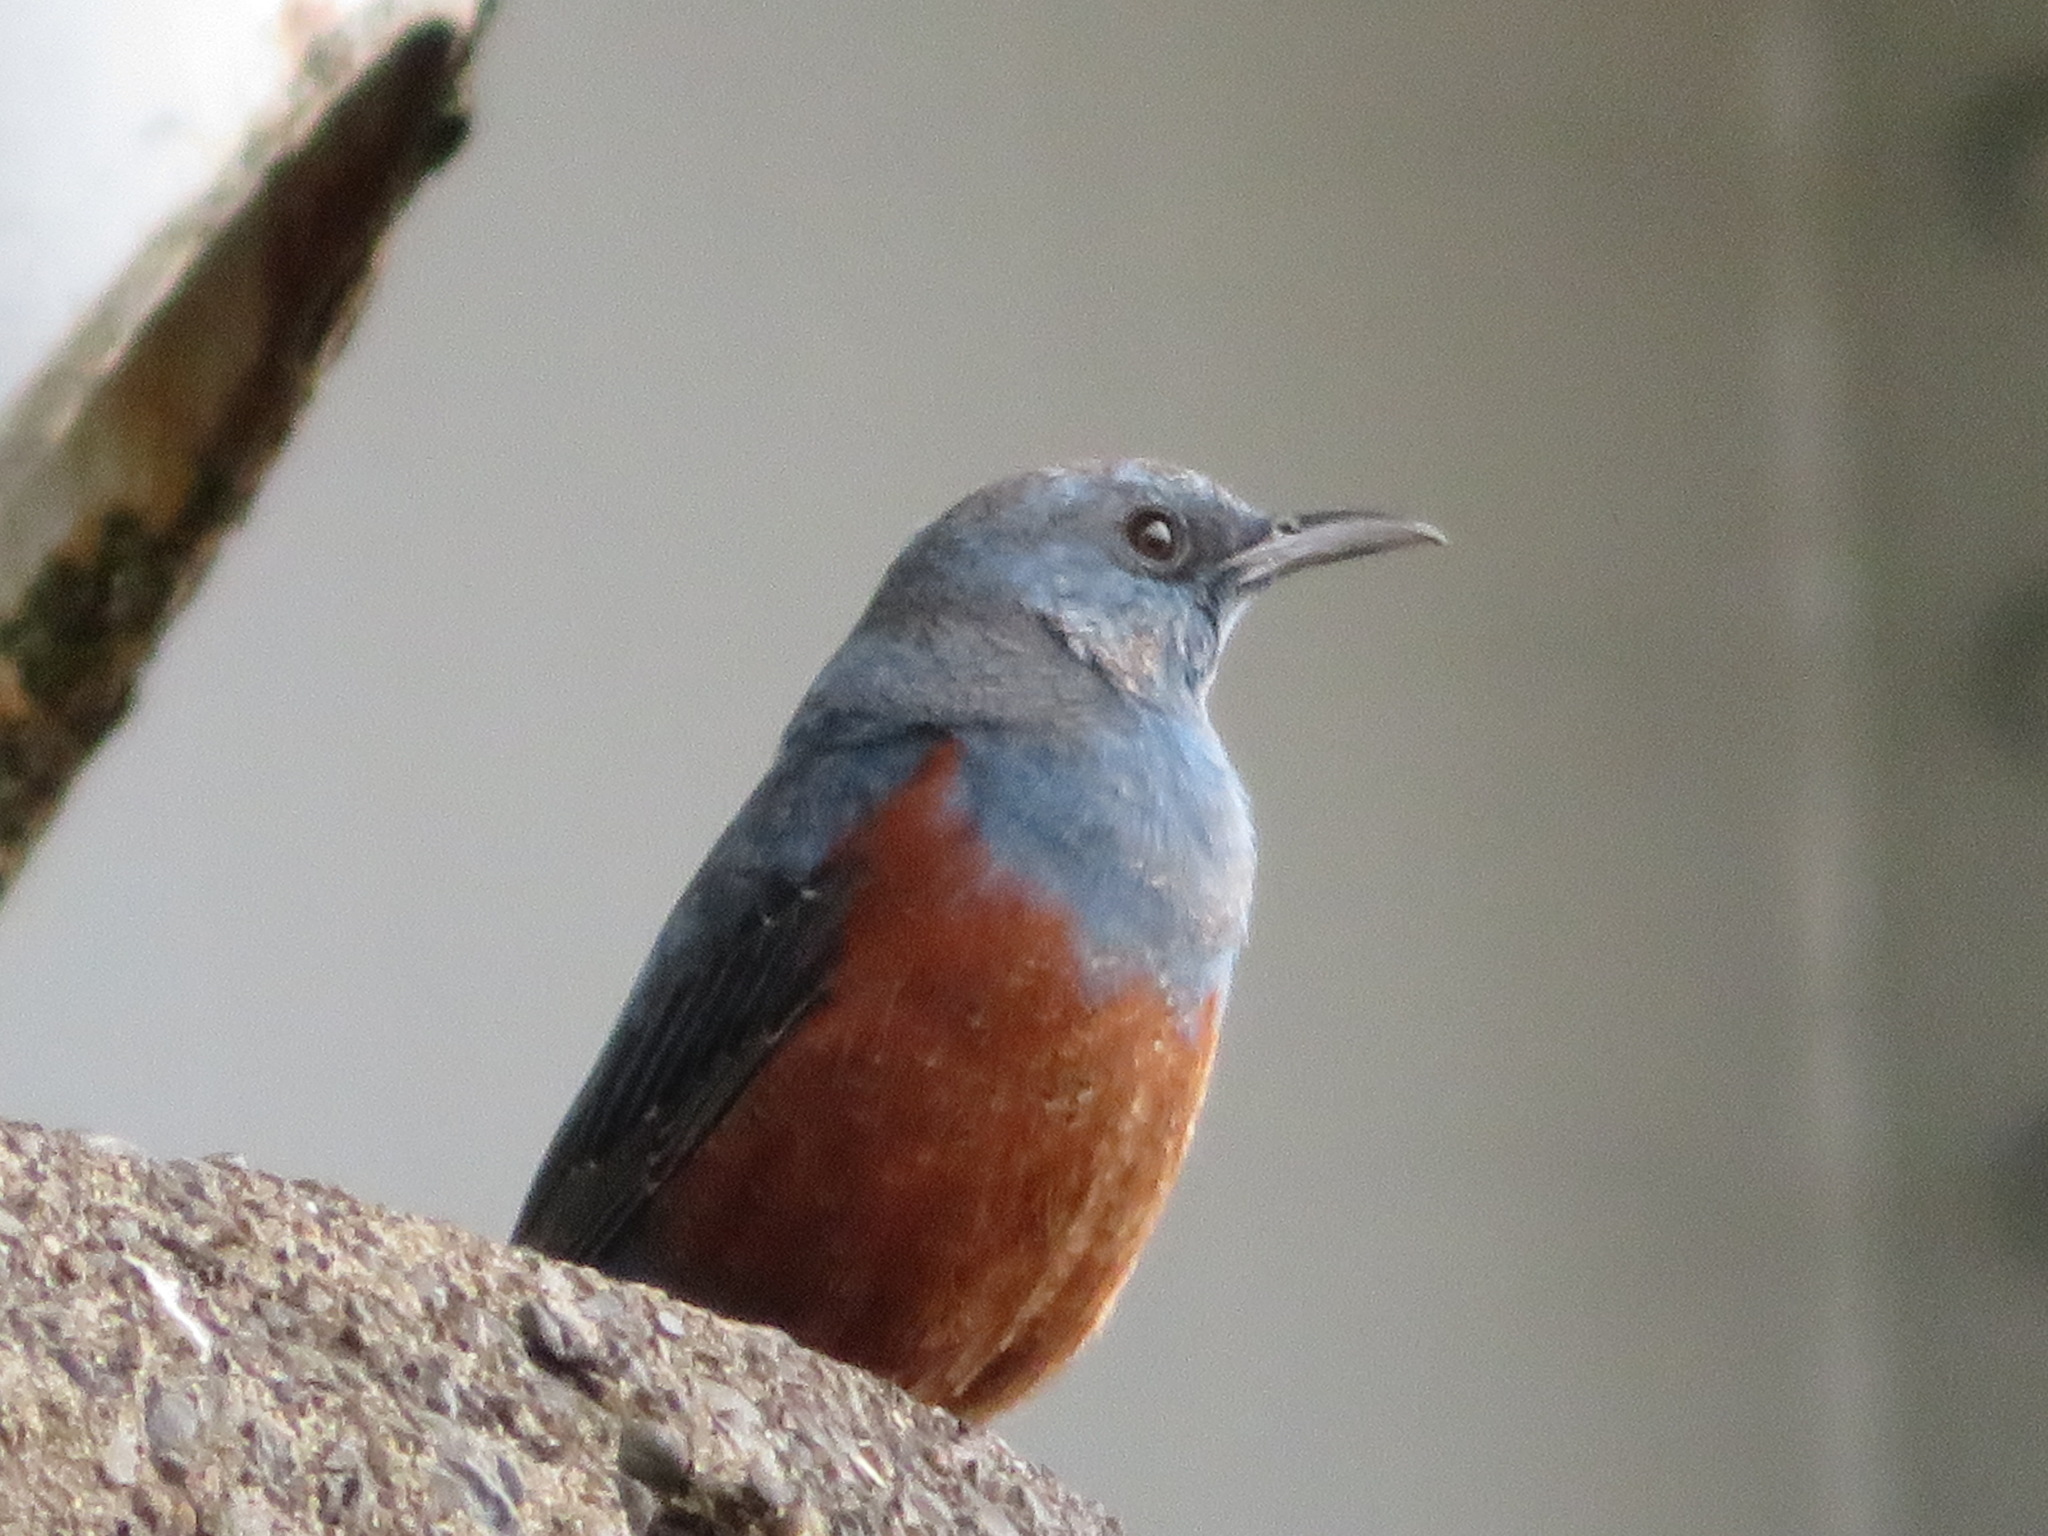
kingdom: Animalia
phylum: Chordata
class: Aves
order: Passeriformes
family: Muscicapidae
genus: Monticola
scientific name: Monticola solitarius
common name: Blue rock thrush
